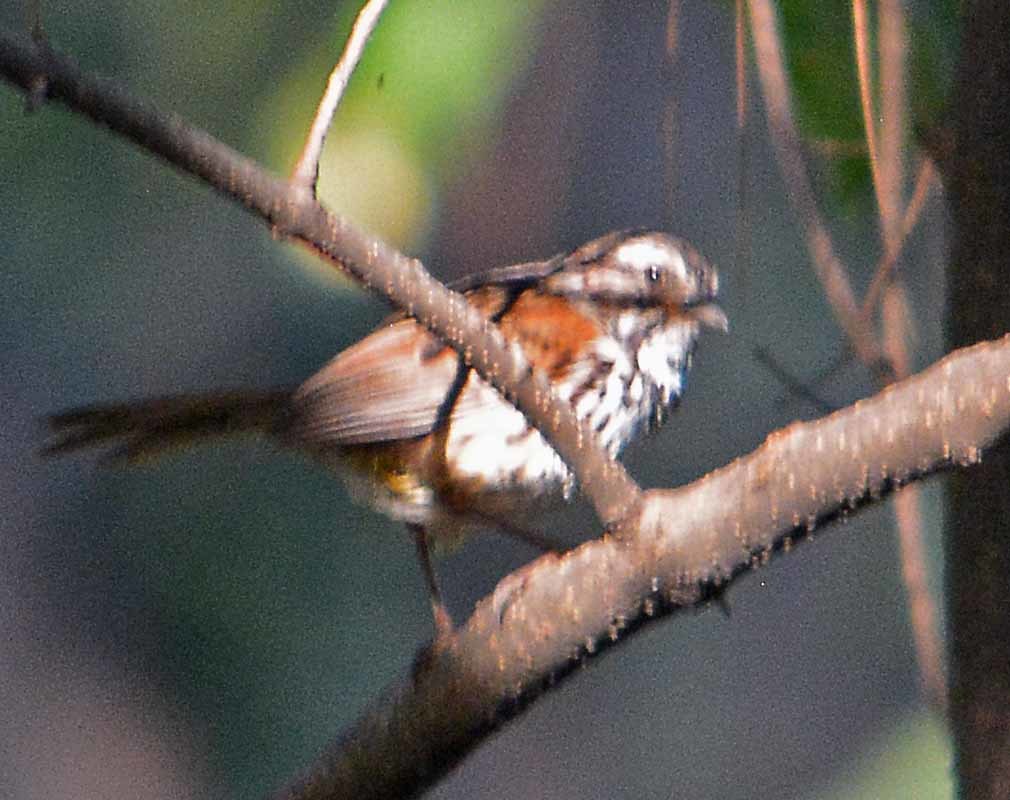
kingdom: Animalia
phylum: Chordata
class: Aves
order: Passeriformes
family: Passerellidae
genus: Melospiza
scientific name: Melospiza melodia
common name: Song sparrow
